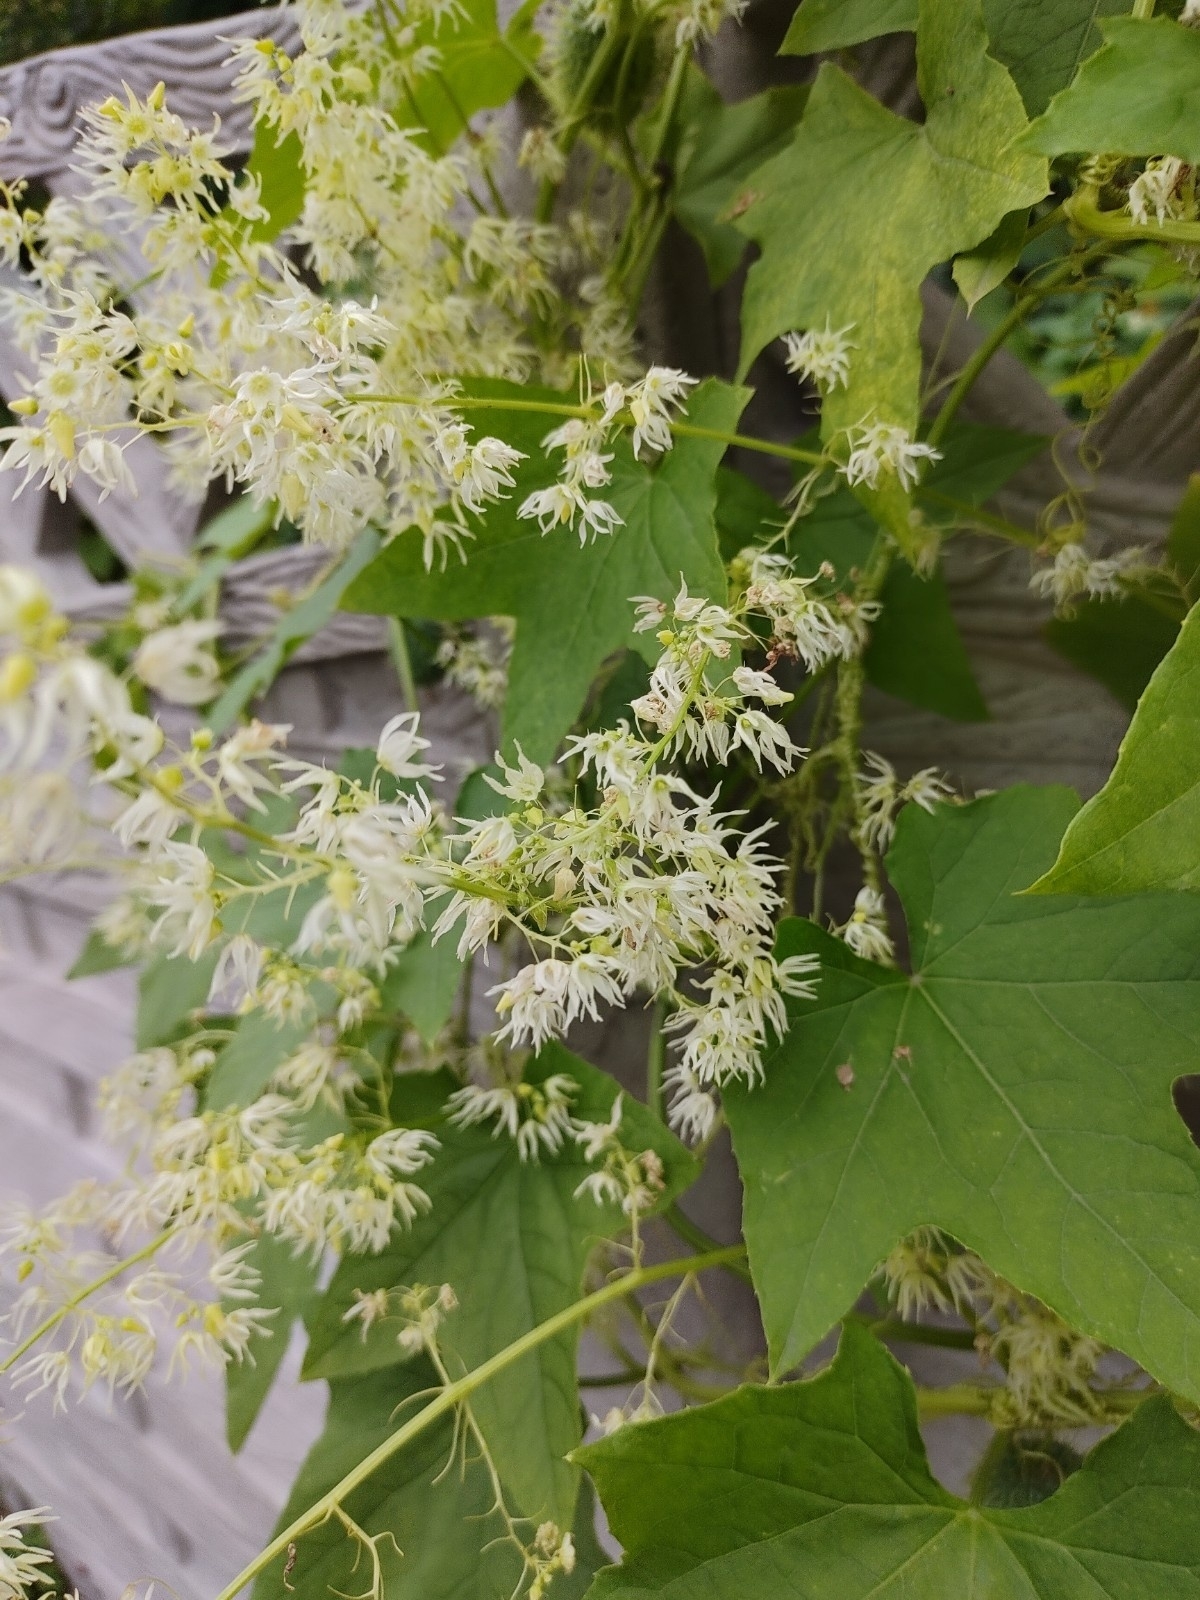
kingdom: Plantae
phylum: Tracheophyta
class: Magnoliopsida
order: Cucurbitales
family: Cucurbitaceae
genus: Echinocystis
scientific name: Echinocystis lobata
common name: Wild cucumber
